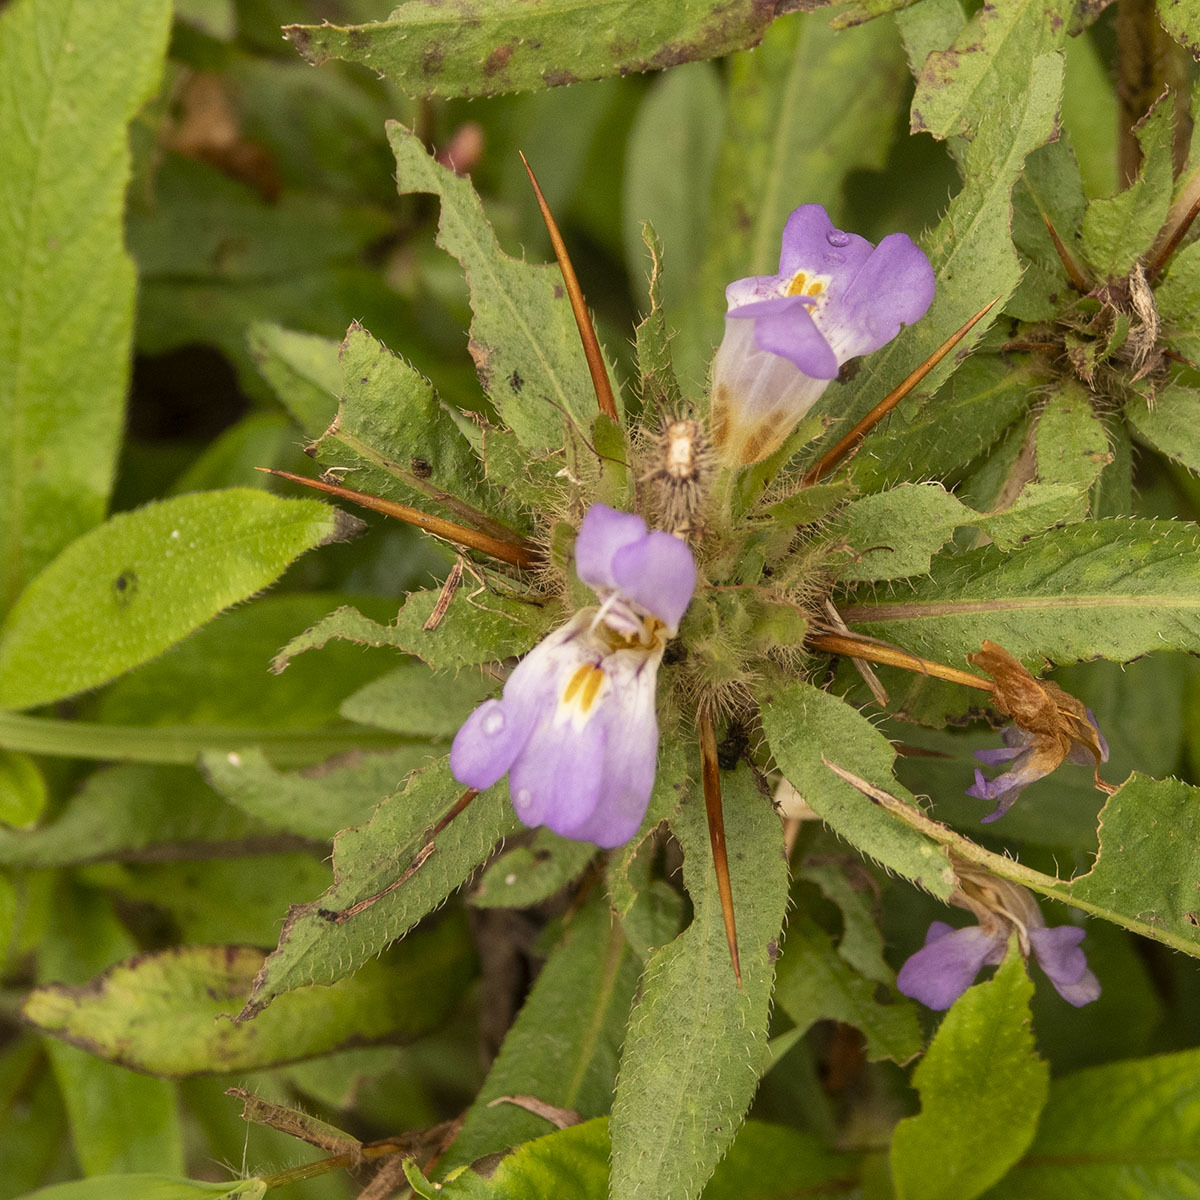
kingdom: Plantae
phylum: Tracheophyta
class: Magnoliopsida
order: Lamiales
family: Acanthaceae
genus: Hygrophila
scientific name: Hygrophila auriculata
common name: Hygrophila
